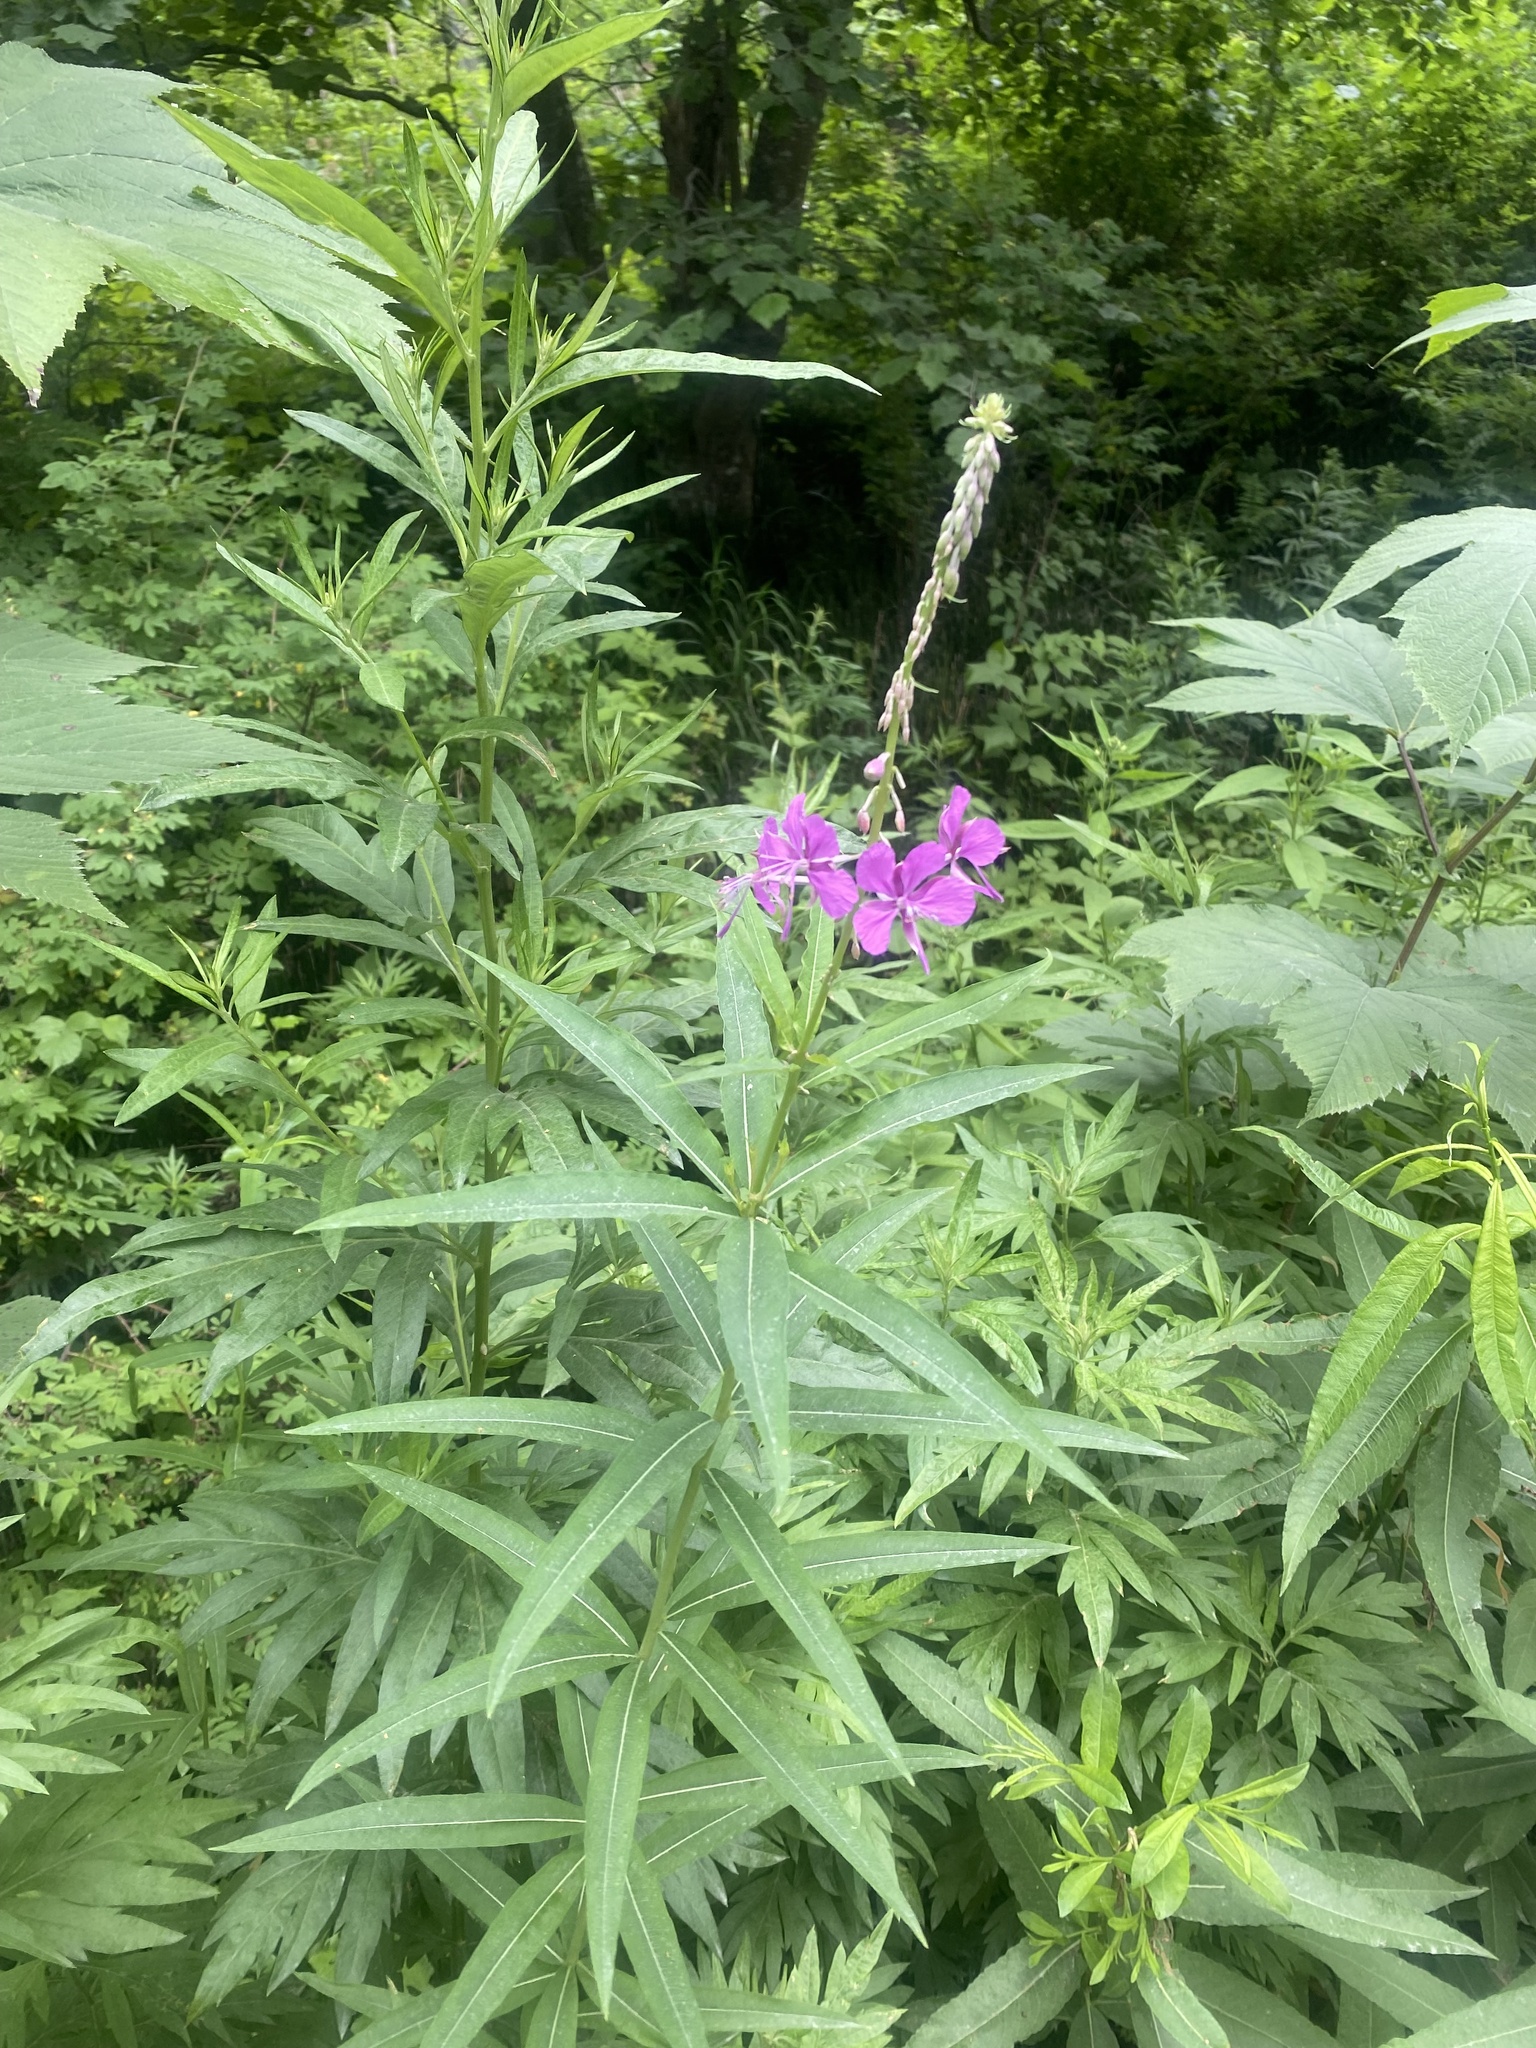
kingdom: Plantae
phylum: Tracheophyta
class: Magnoliopsida
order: Myrtales
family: Onagraceae
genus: Chamaenerion
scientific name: Chamaenerion angustifolium
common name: Fireweed
